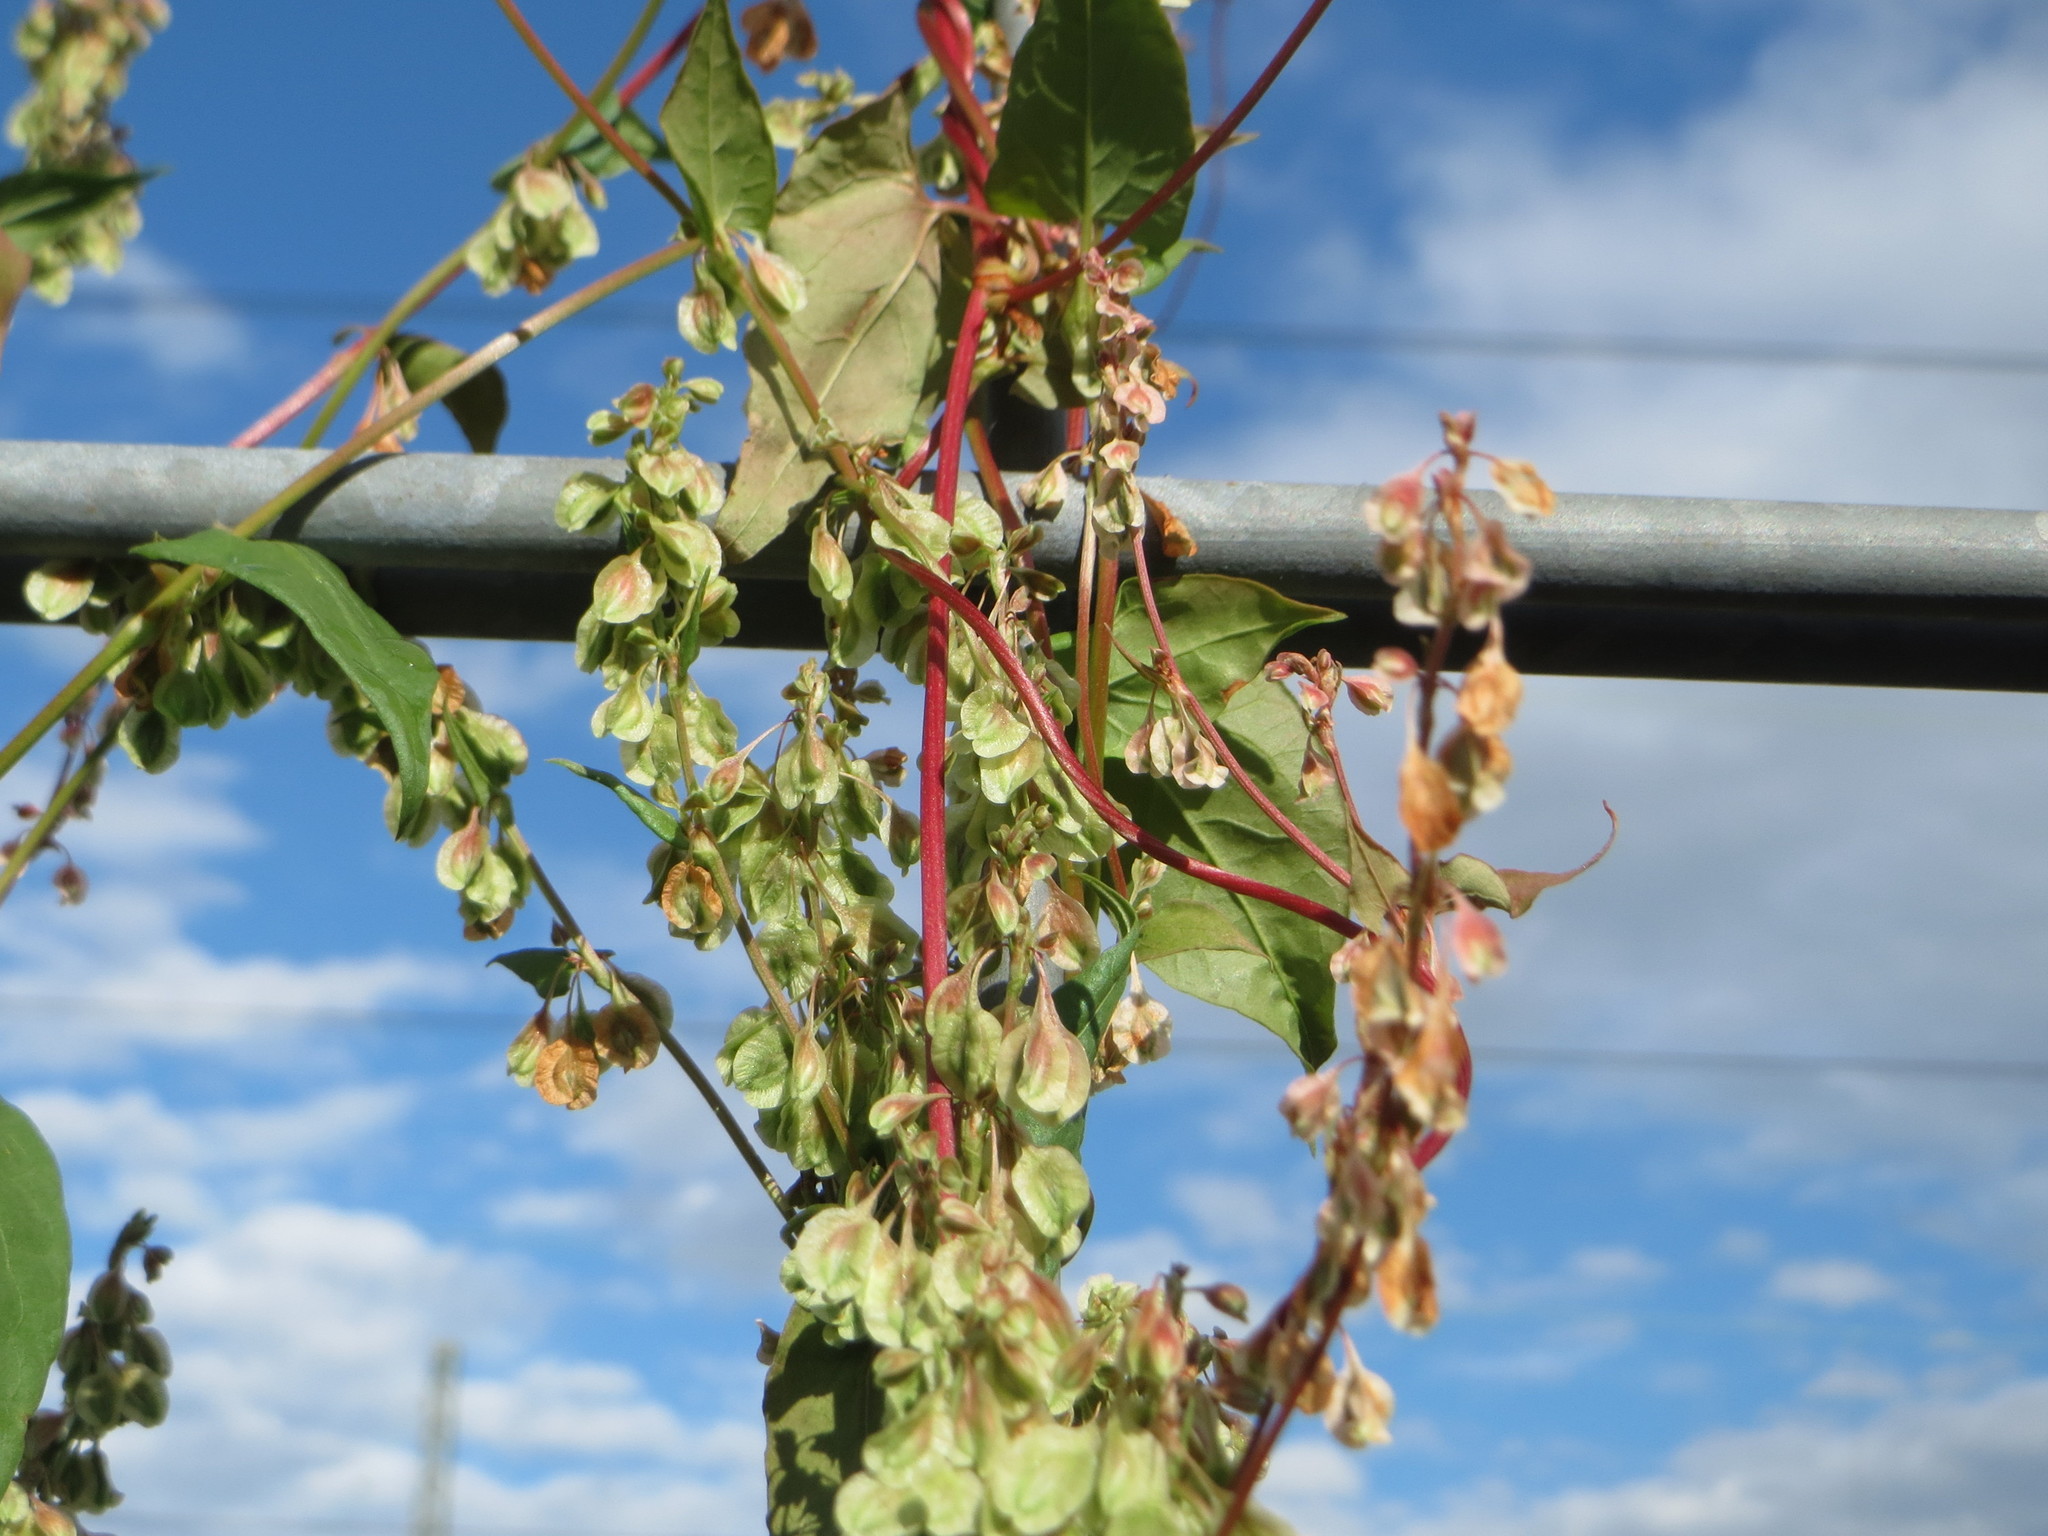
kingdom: Plantae
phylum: Tracheophyta
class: Magnoliopsida
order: Caryophyllales
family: Polygonaceae
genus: Fallopia
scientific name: Fallopia dumetorum
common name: Copse-bindweed
